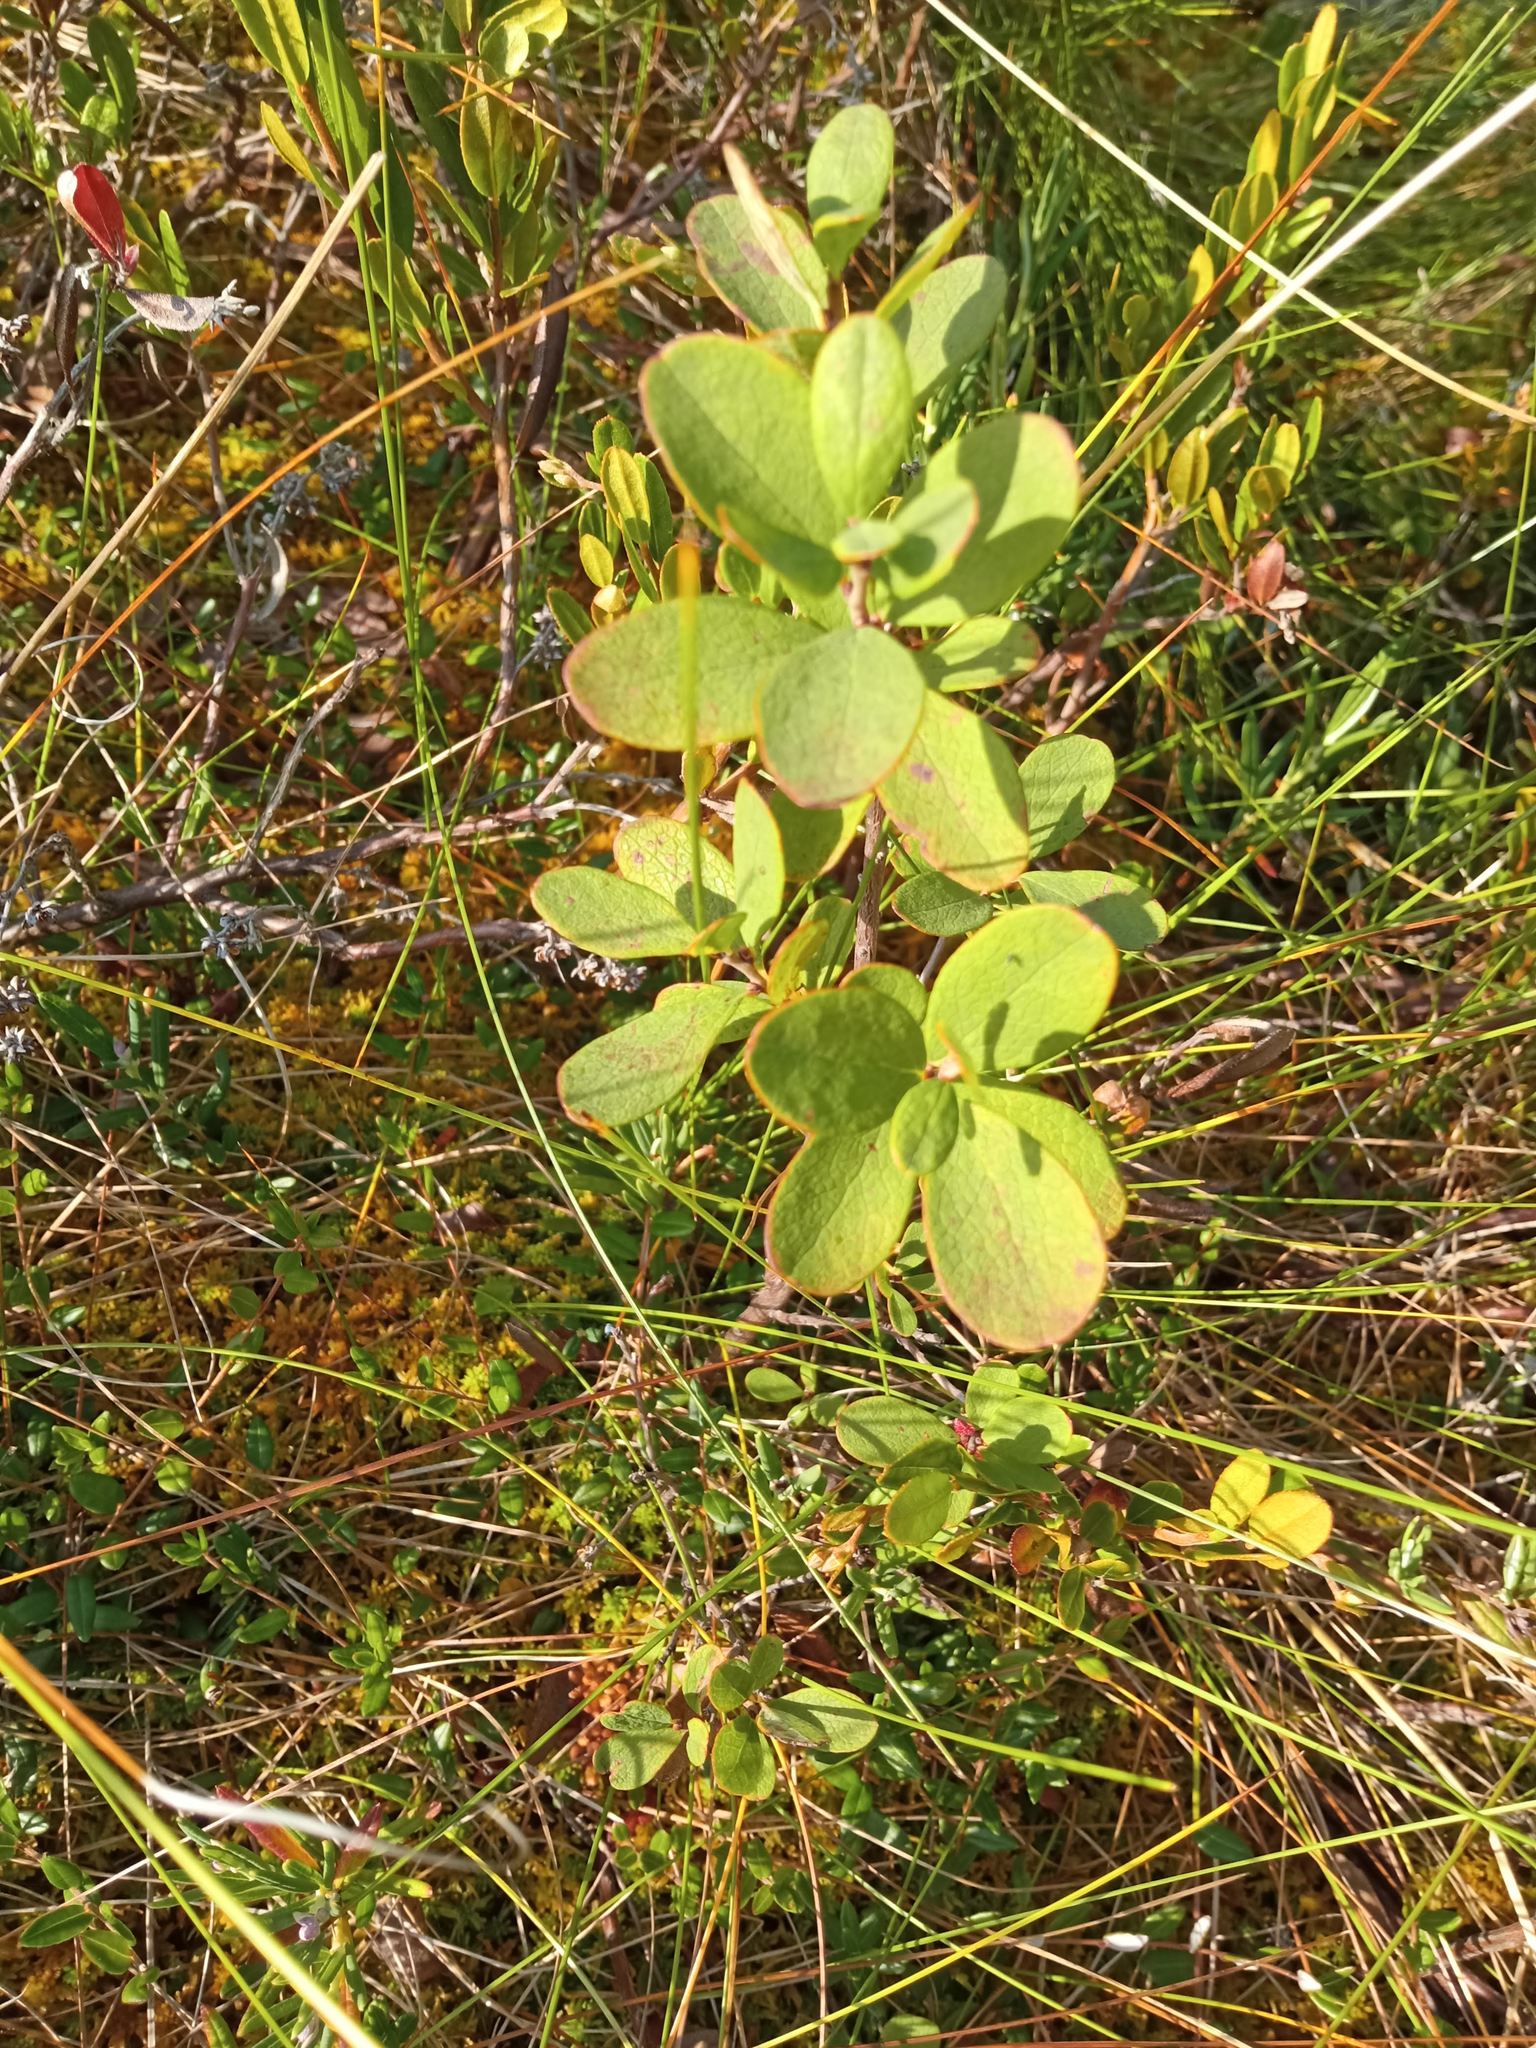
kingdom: Plantae
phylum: Tracheophyta
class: Magnoliopsida
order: Ericales
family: Ericaceae
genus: Vaccinium
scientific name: Vaccinium uliginosum
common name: Bog bilberry
